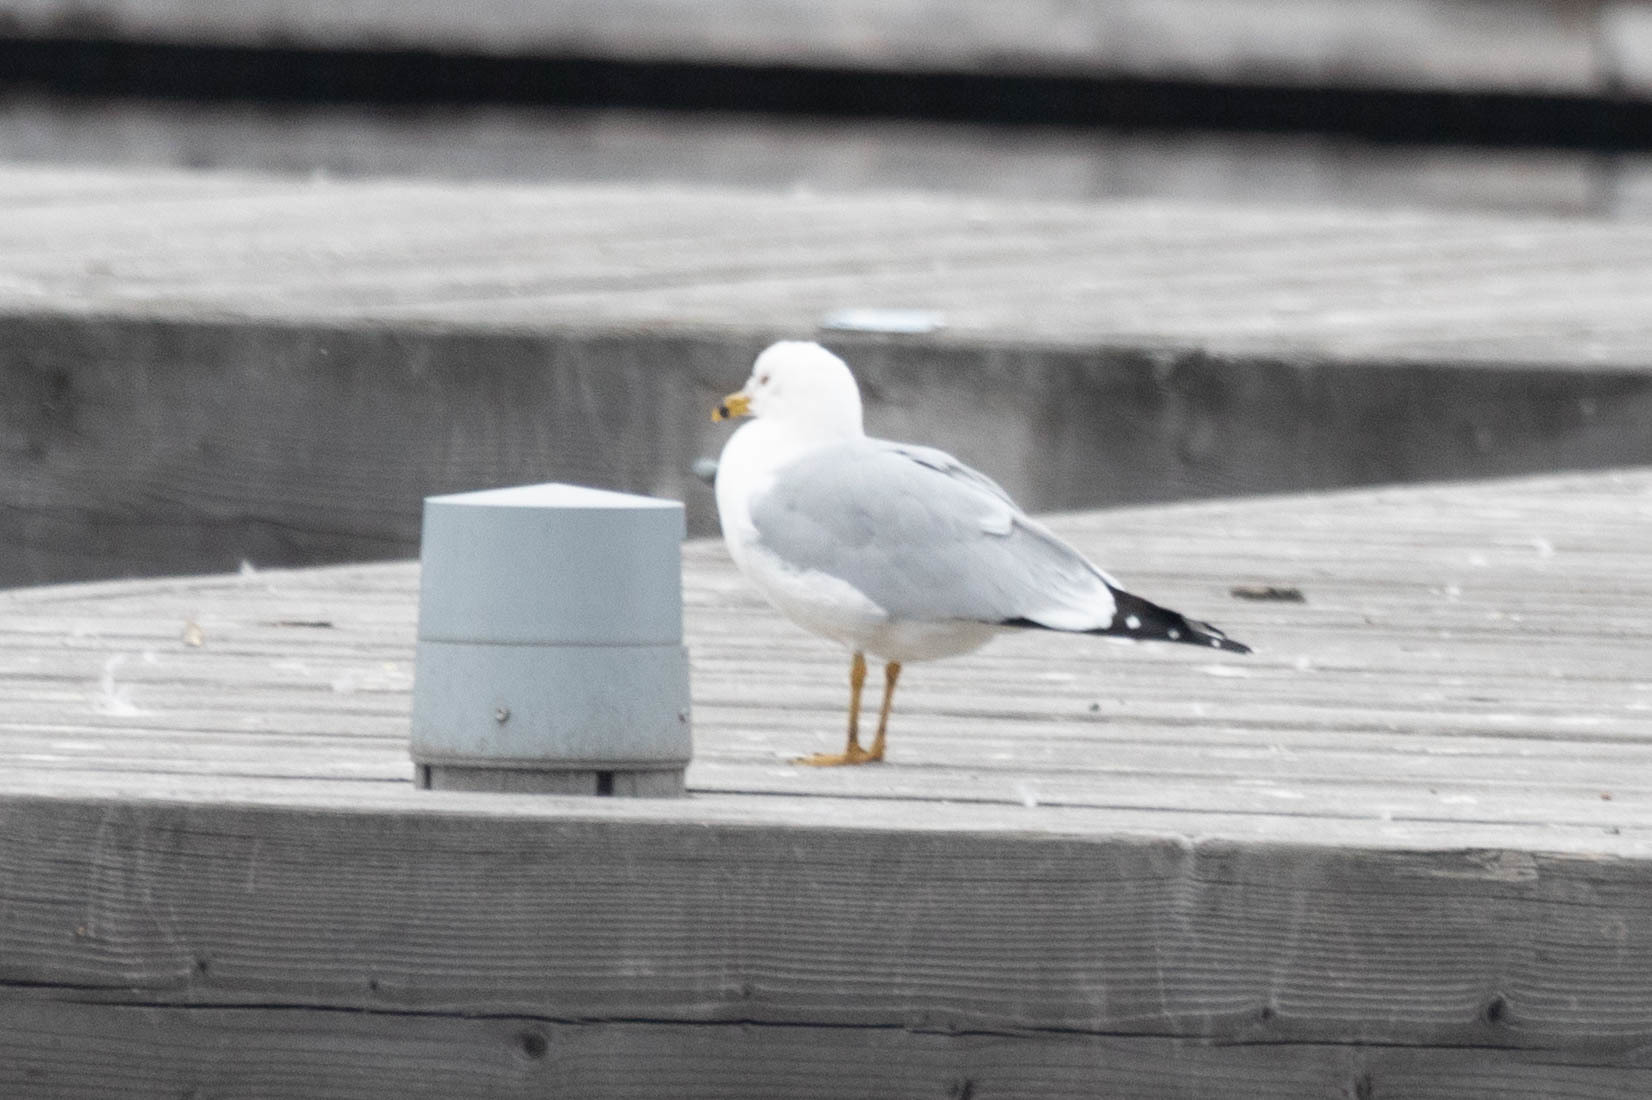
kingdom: Animalia
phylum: Chordata
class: Aves
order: Charadriiformes
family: Laridae
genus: Larus
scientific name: Larus delawarensis
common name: Ring-billed gull
